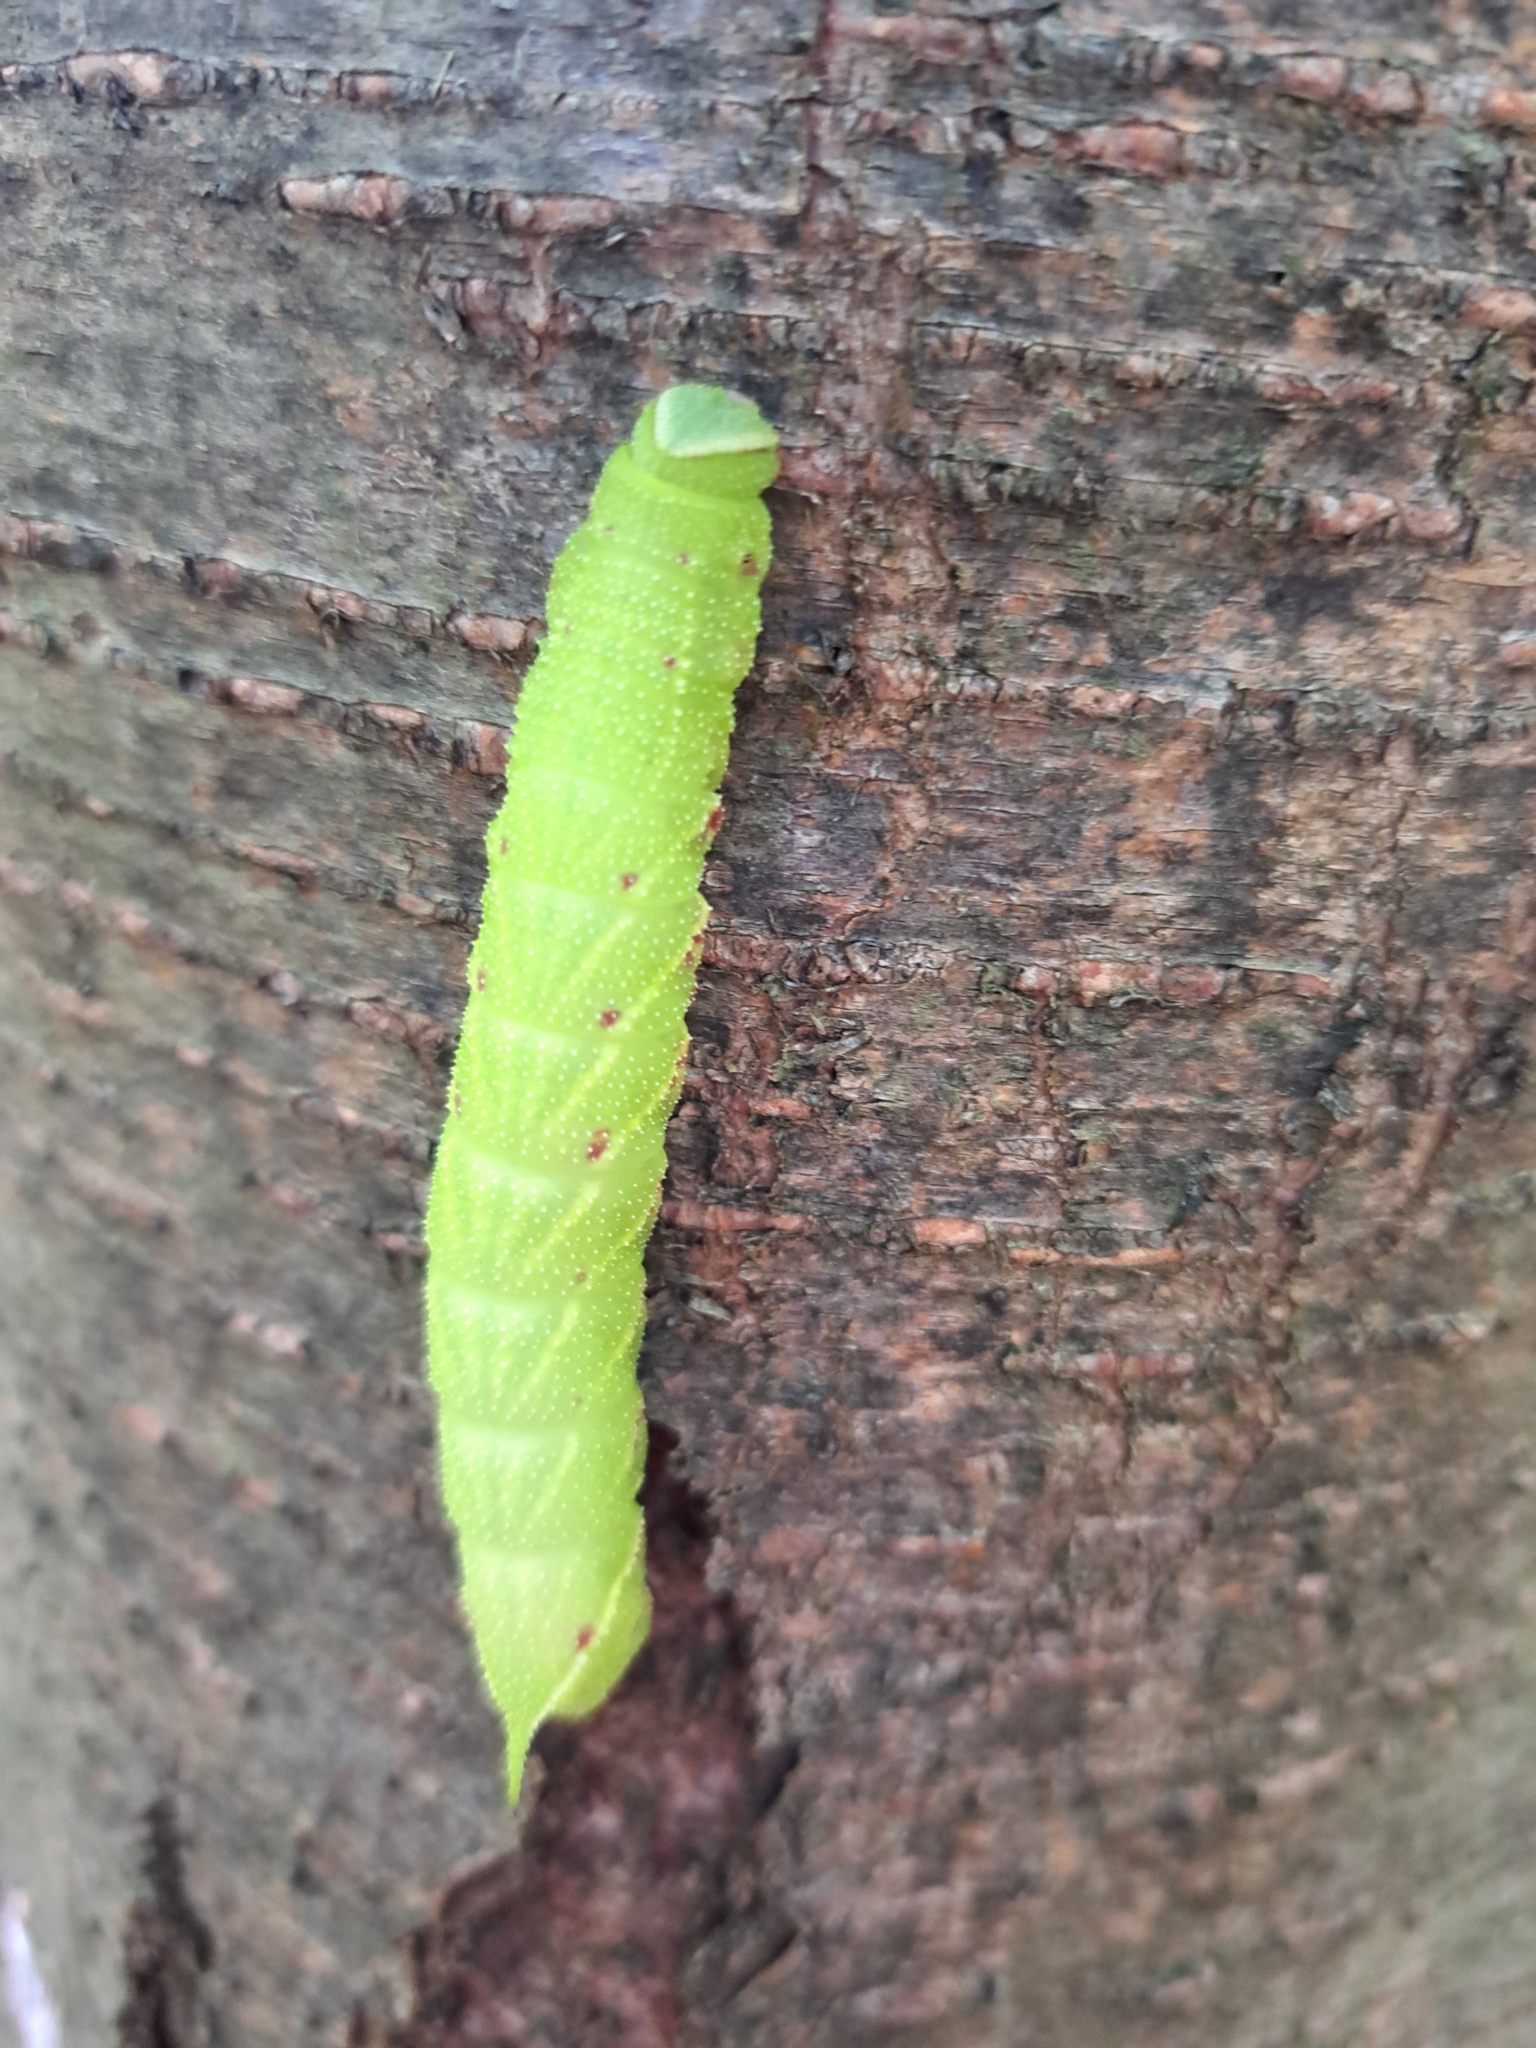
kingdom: Animalia
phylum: Arthropoda
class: Insecta
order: Lepidoptera
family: Sphingidae
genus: Paonias
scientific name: Paonias excaecata
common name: Blind-eyed sphinx
